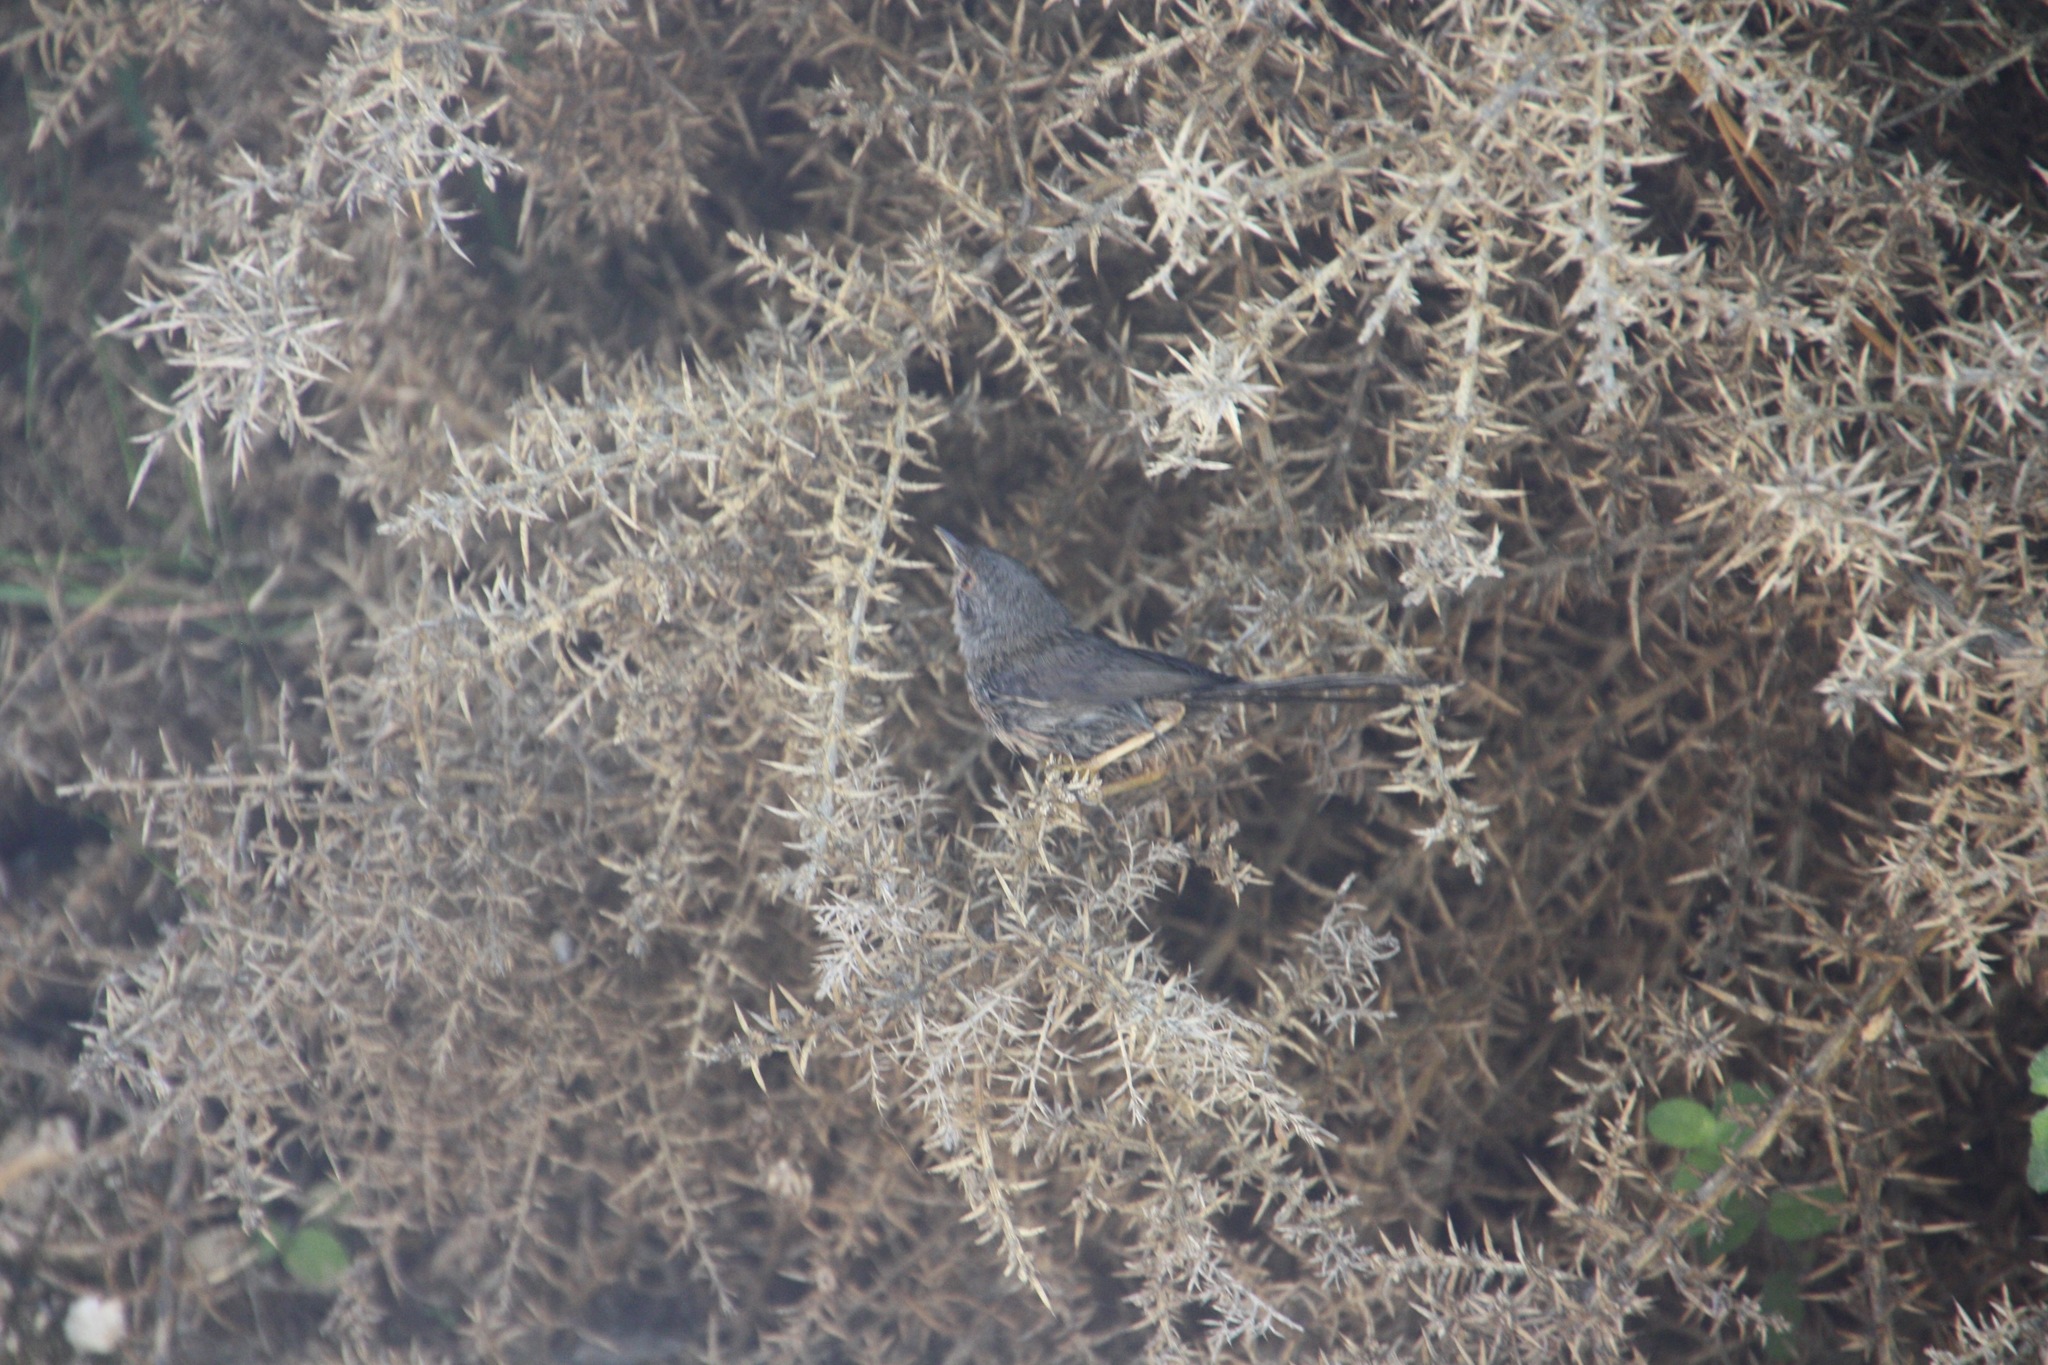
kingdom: Animalia
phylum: Chordata
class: Aves
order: Passeriformes
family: Sylviidae
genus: Sylvia
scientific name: Sylvia undata
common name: Dartford warbler
